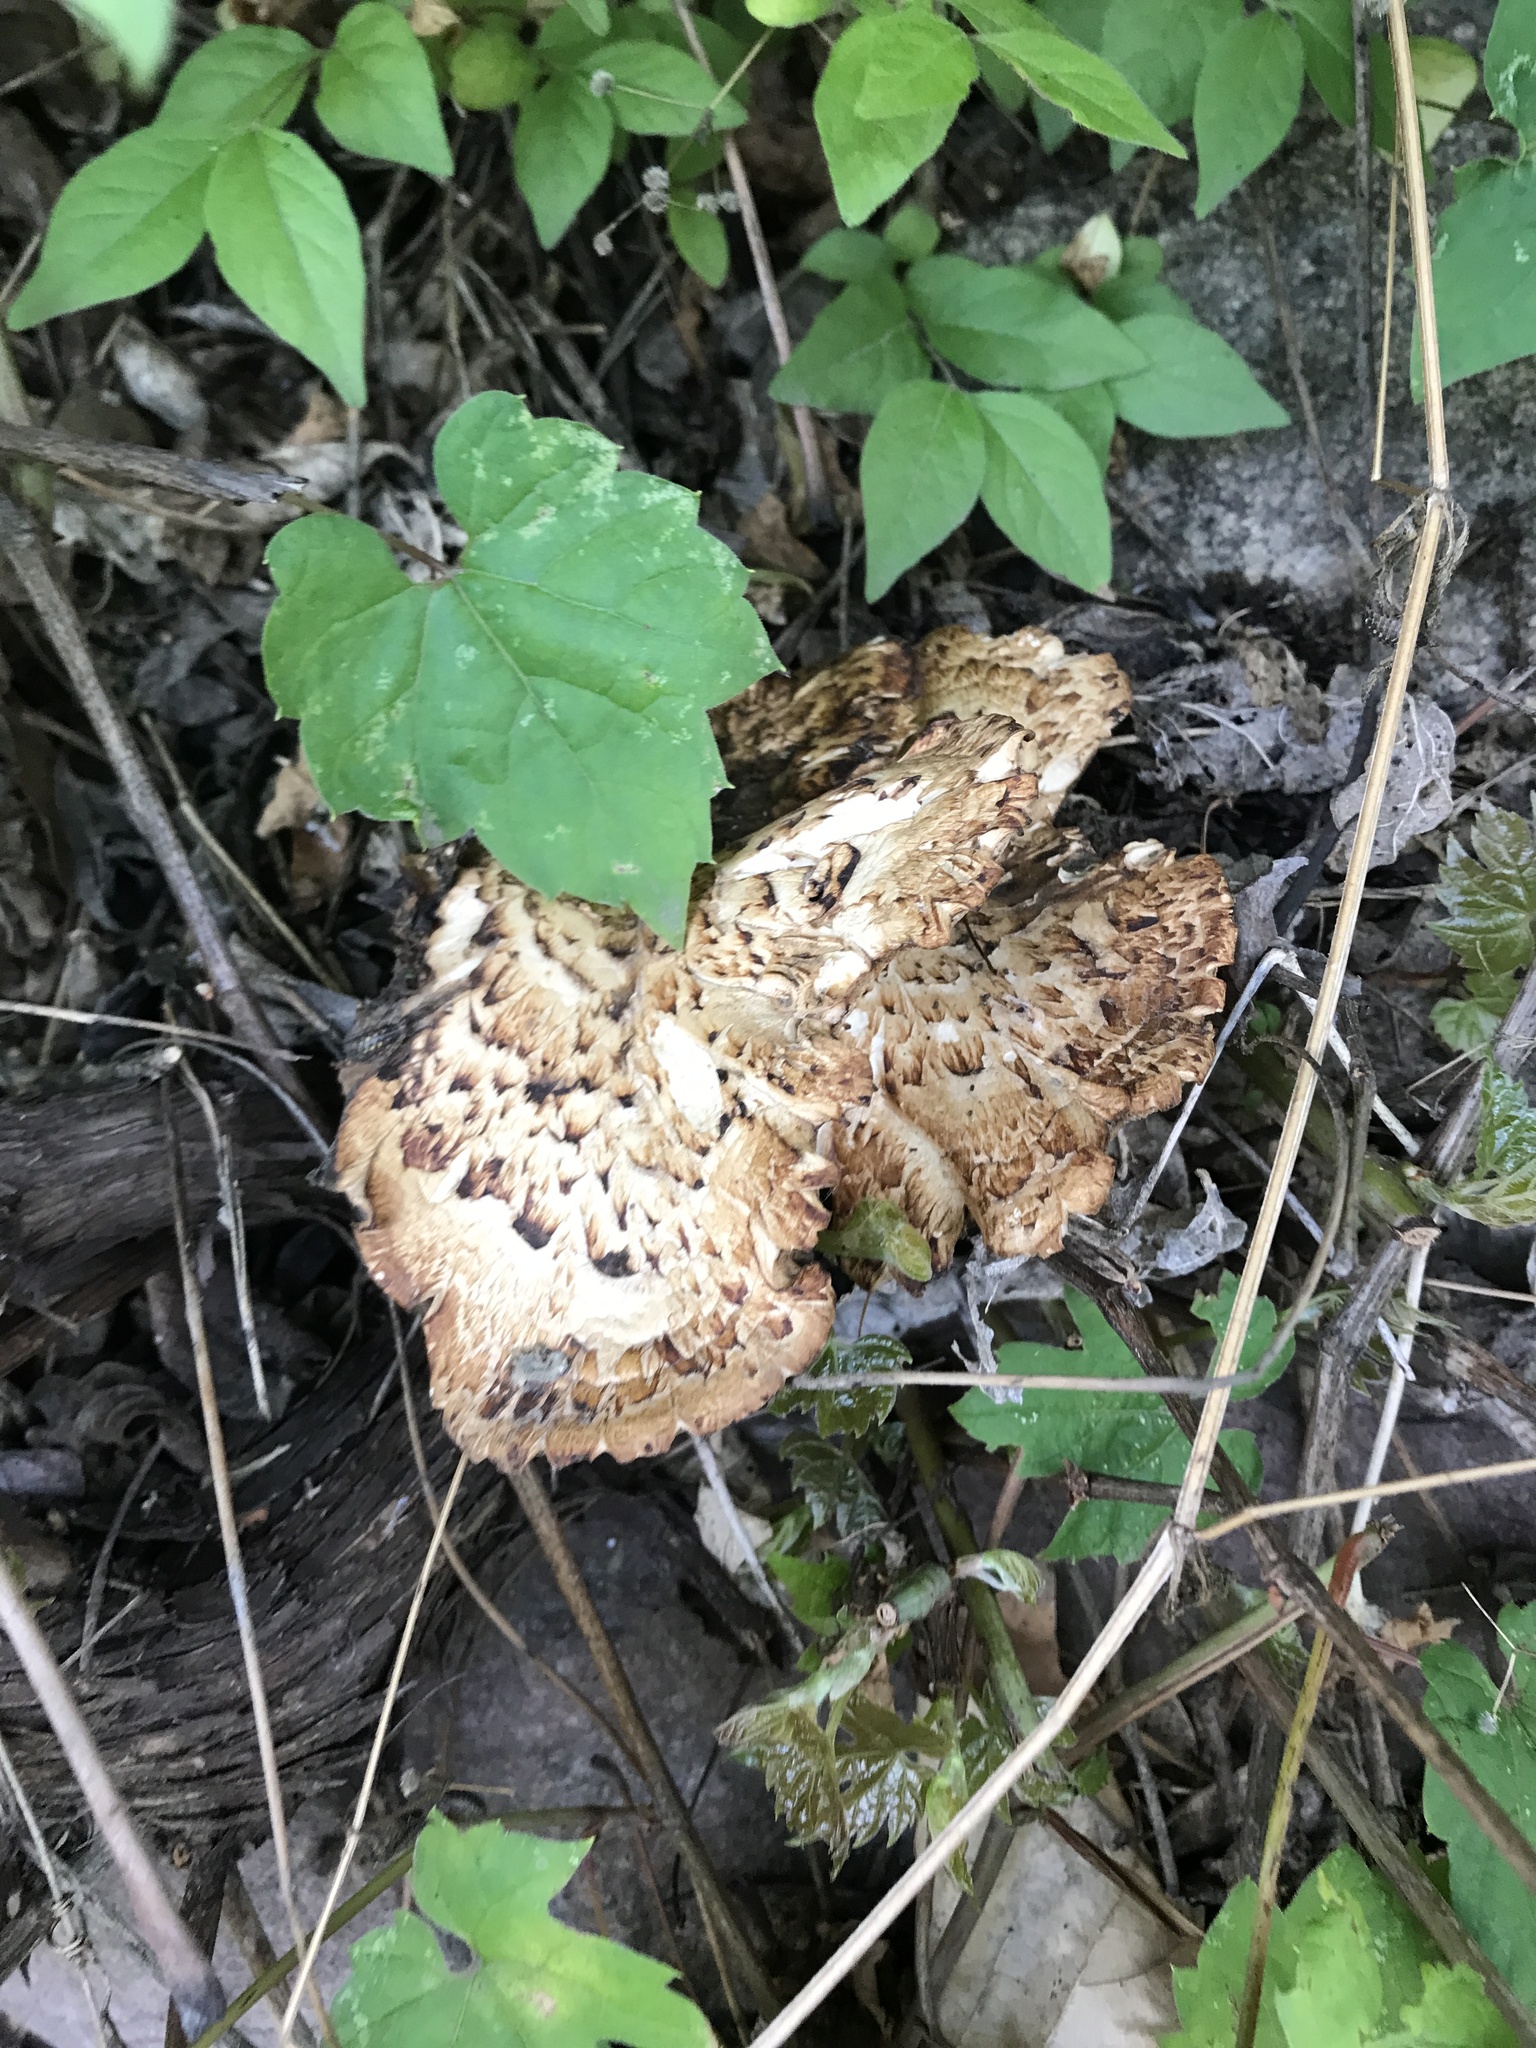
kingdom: Fungi
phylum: Basidiomycota
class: Agaricomycetes
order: Polyporales
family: Polyporaceae
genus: Cerioporus
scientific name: Cerioporus squamosus
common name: Dryad's saddle
